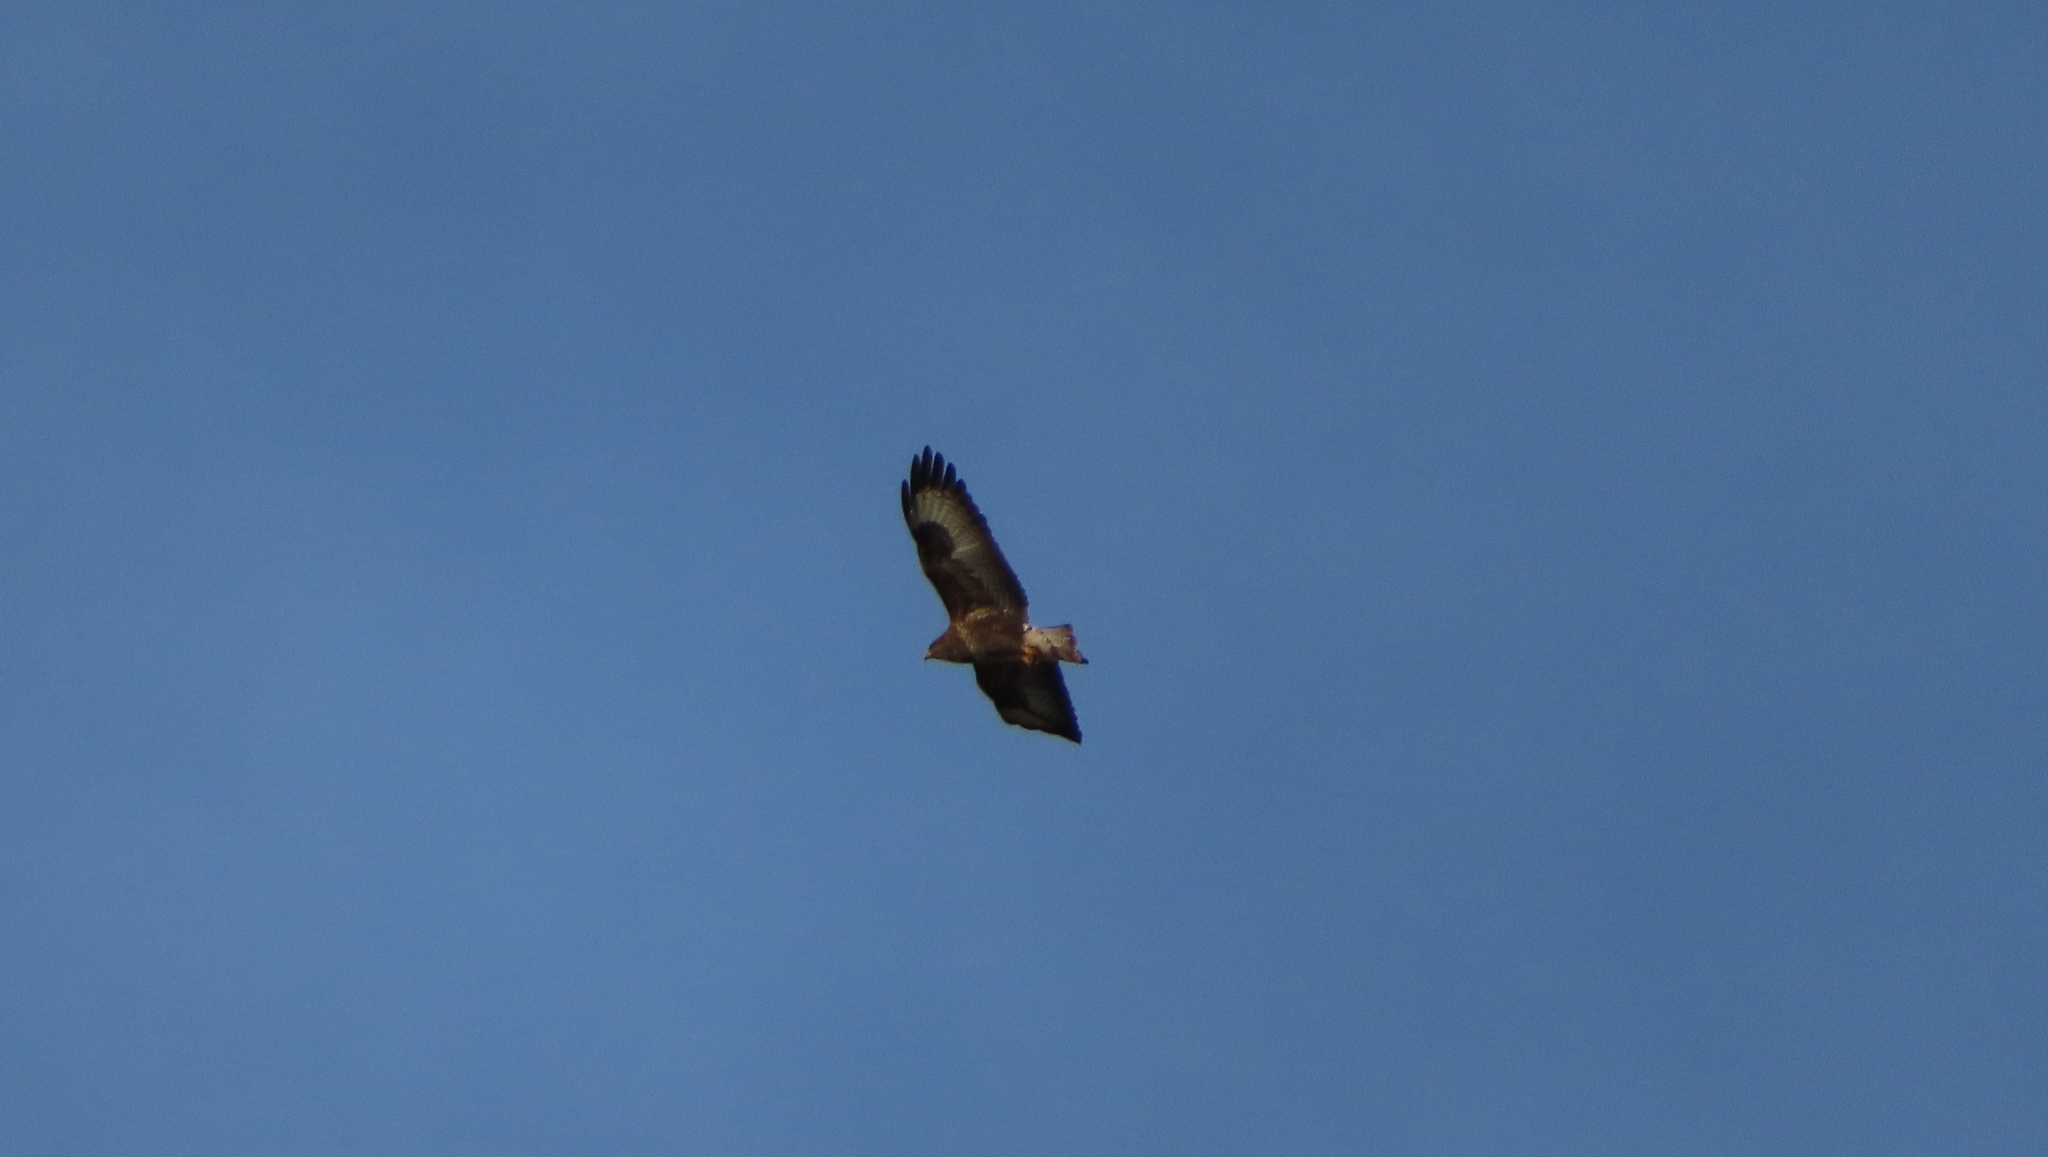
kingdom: Animalia
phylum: Chordata
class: Aves
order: Accipitriformes
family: Accipitridae
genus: Buteo
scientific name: Buteo buteo
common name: Common buzzard
